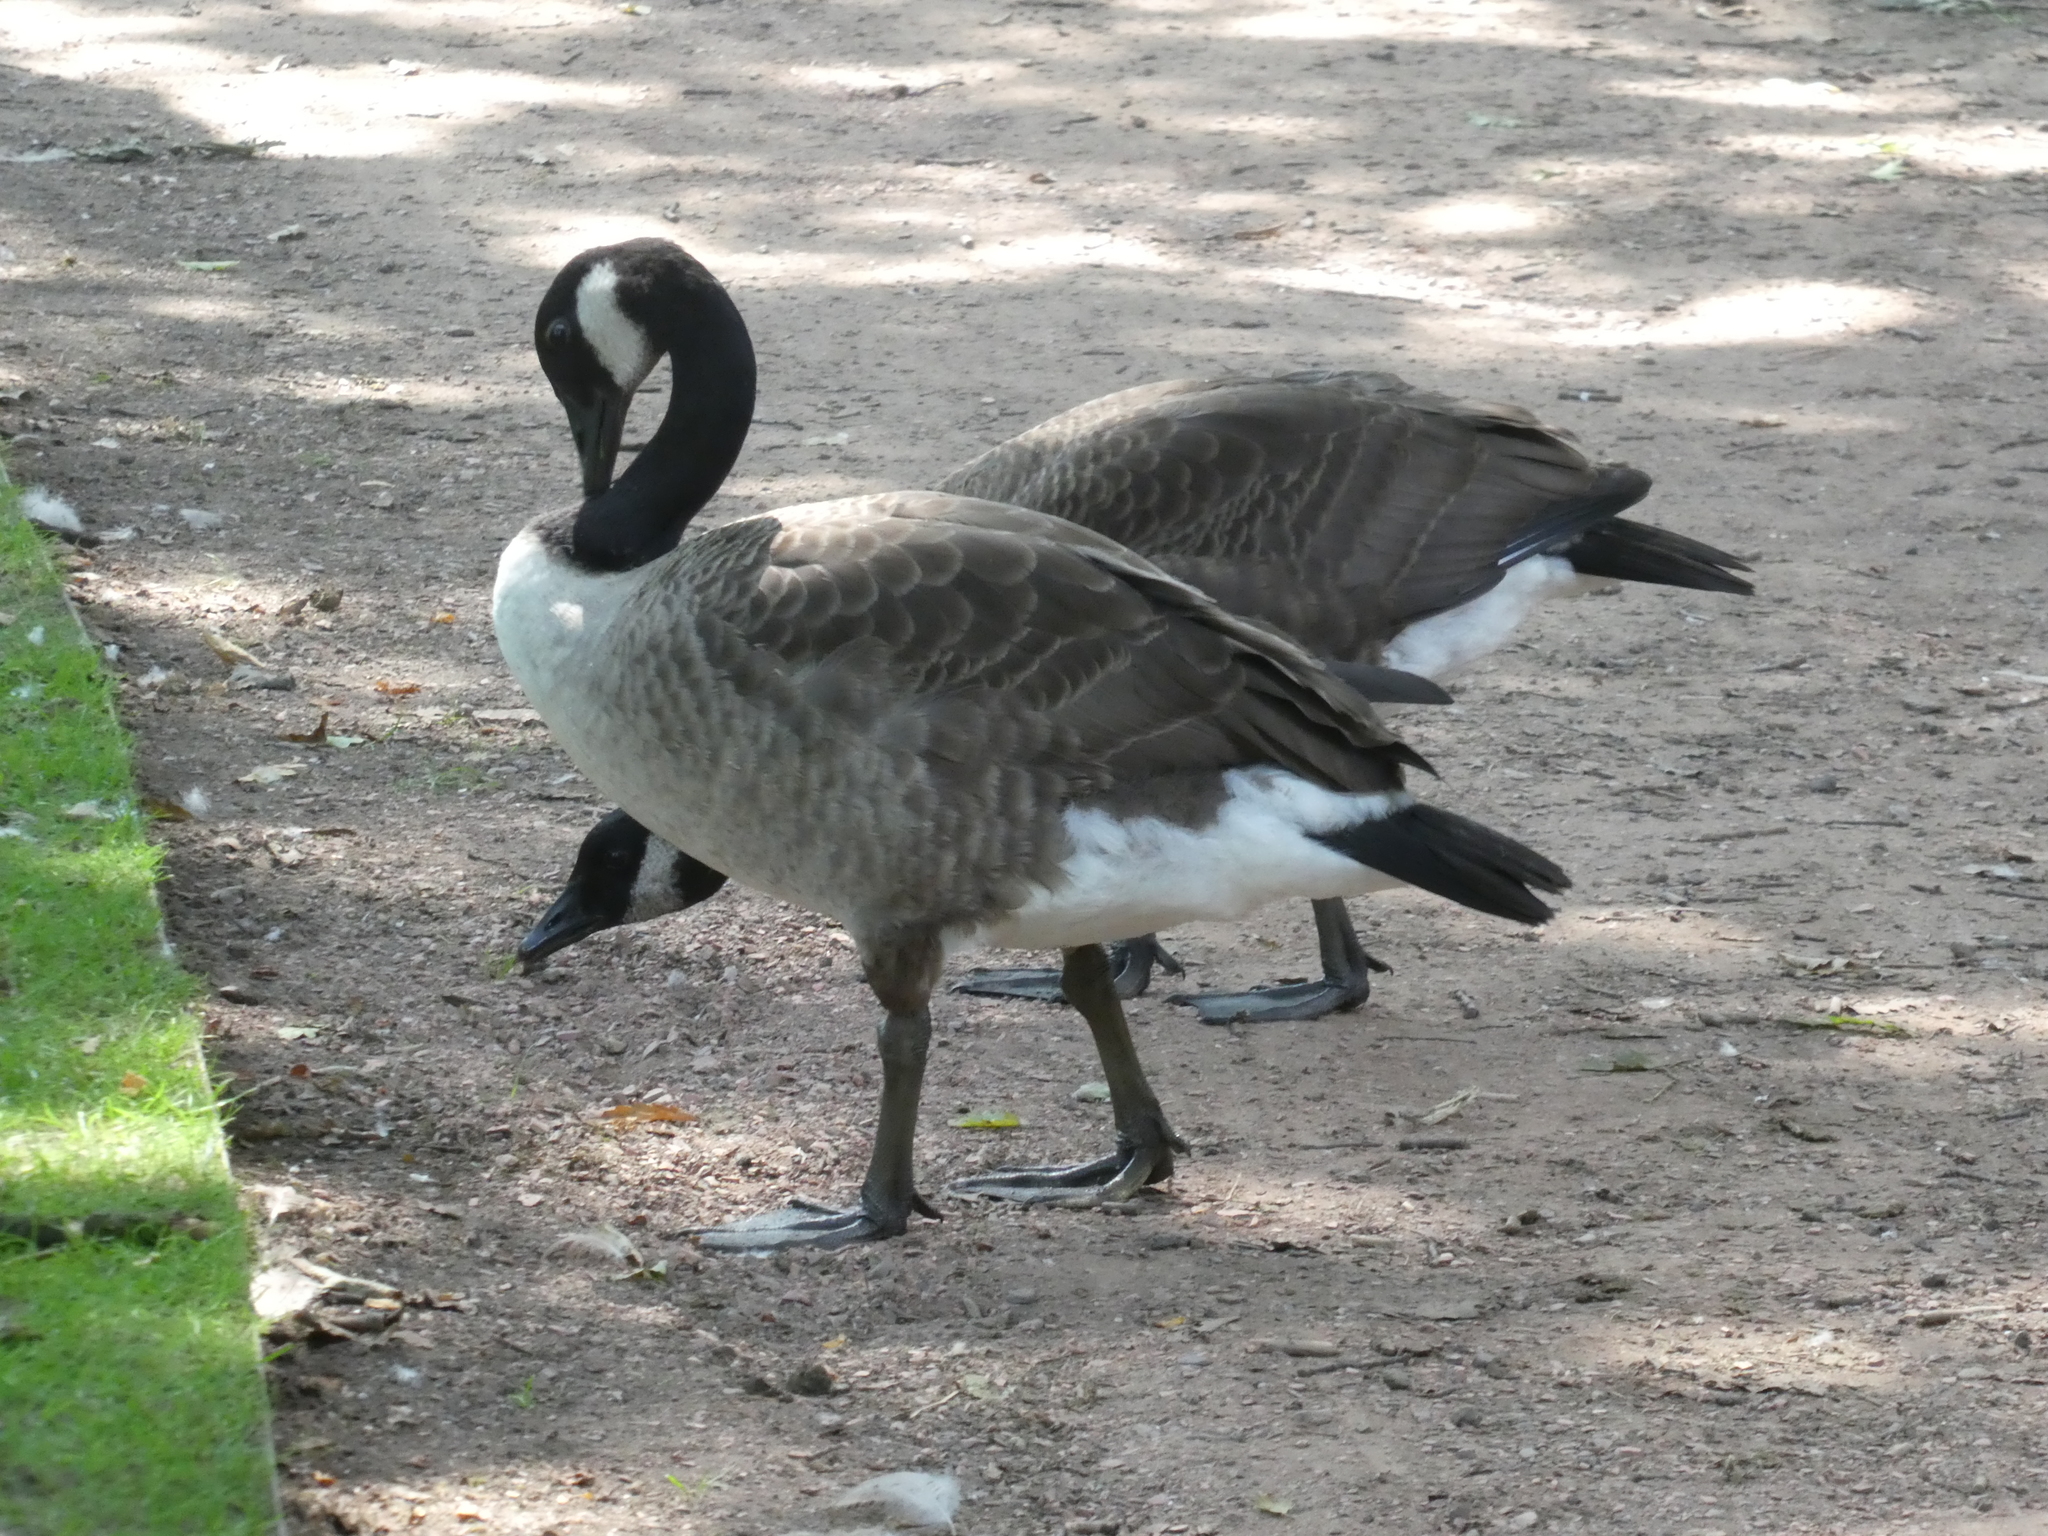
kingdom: Animalia
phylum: Chordata
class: Aves
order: Anseriformes
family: Anatidae
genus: Branta
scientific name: Branta canadensis
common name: Canada goose
